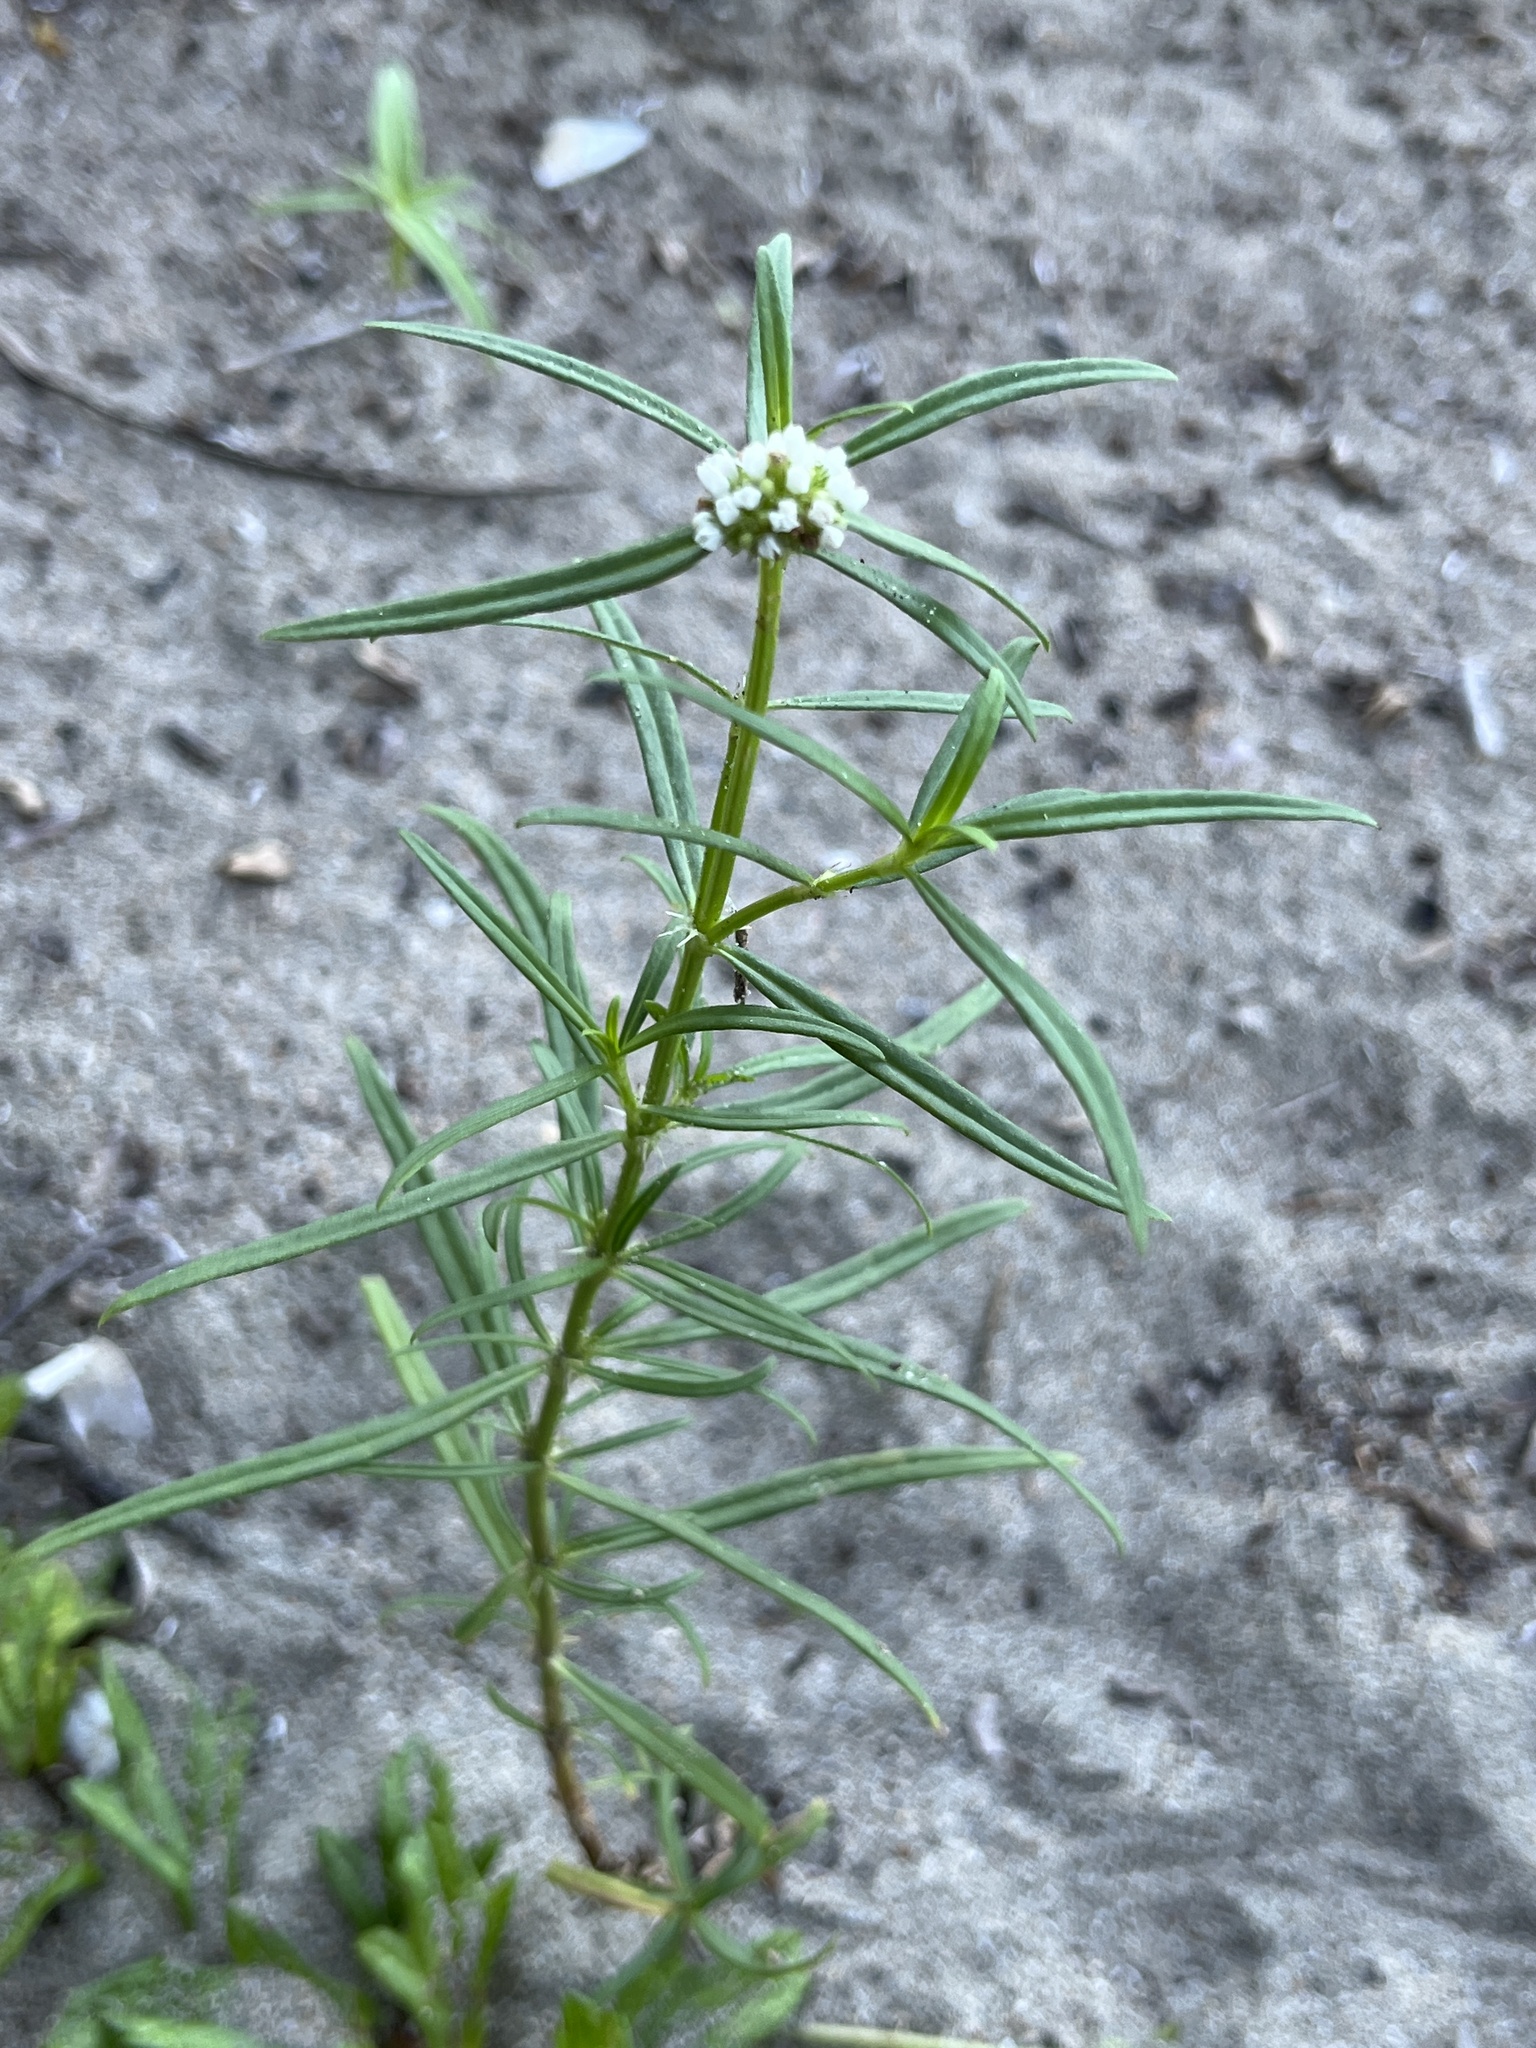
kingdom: Plantae
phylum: Tracheophyta
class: Magnoliopsida
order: Gentianales
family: Rubiaceae
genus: Spermacoce
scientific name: Spermacoce verticillata
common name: Shrubby false buttonweed
